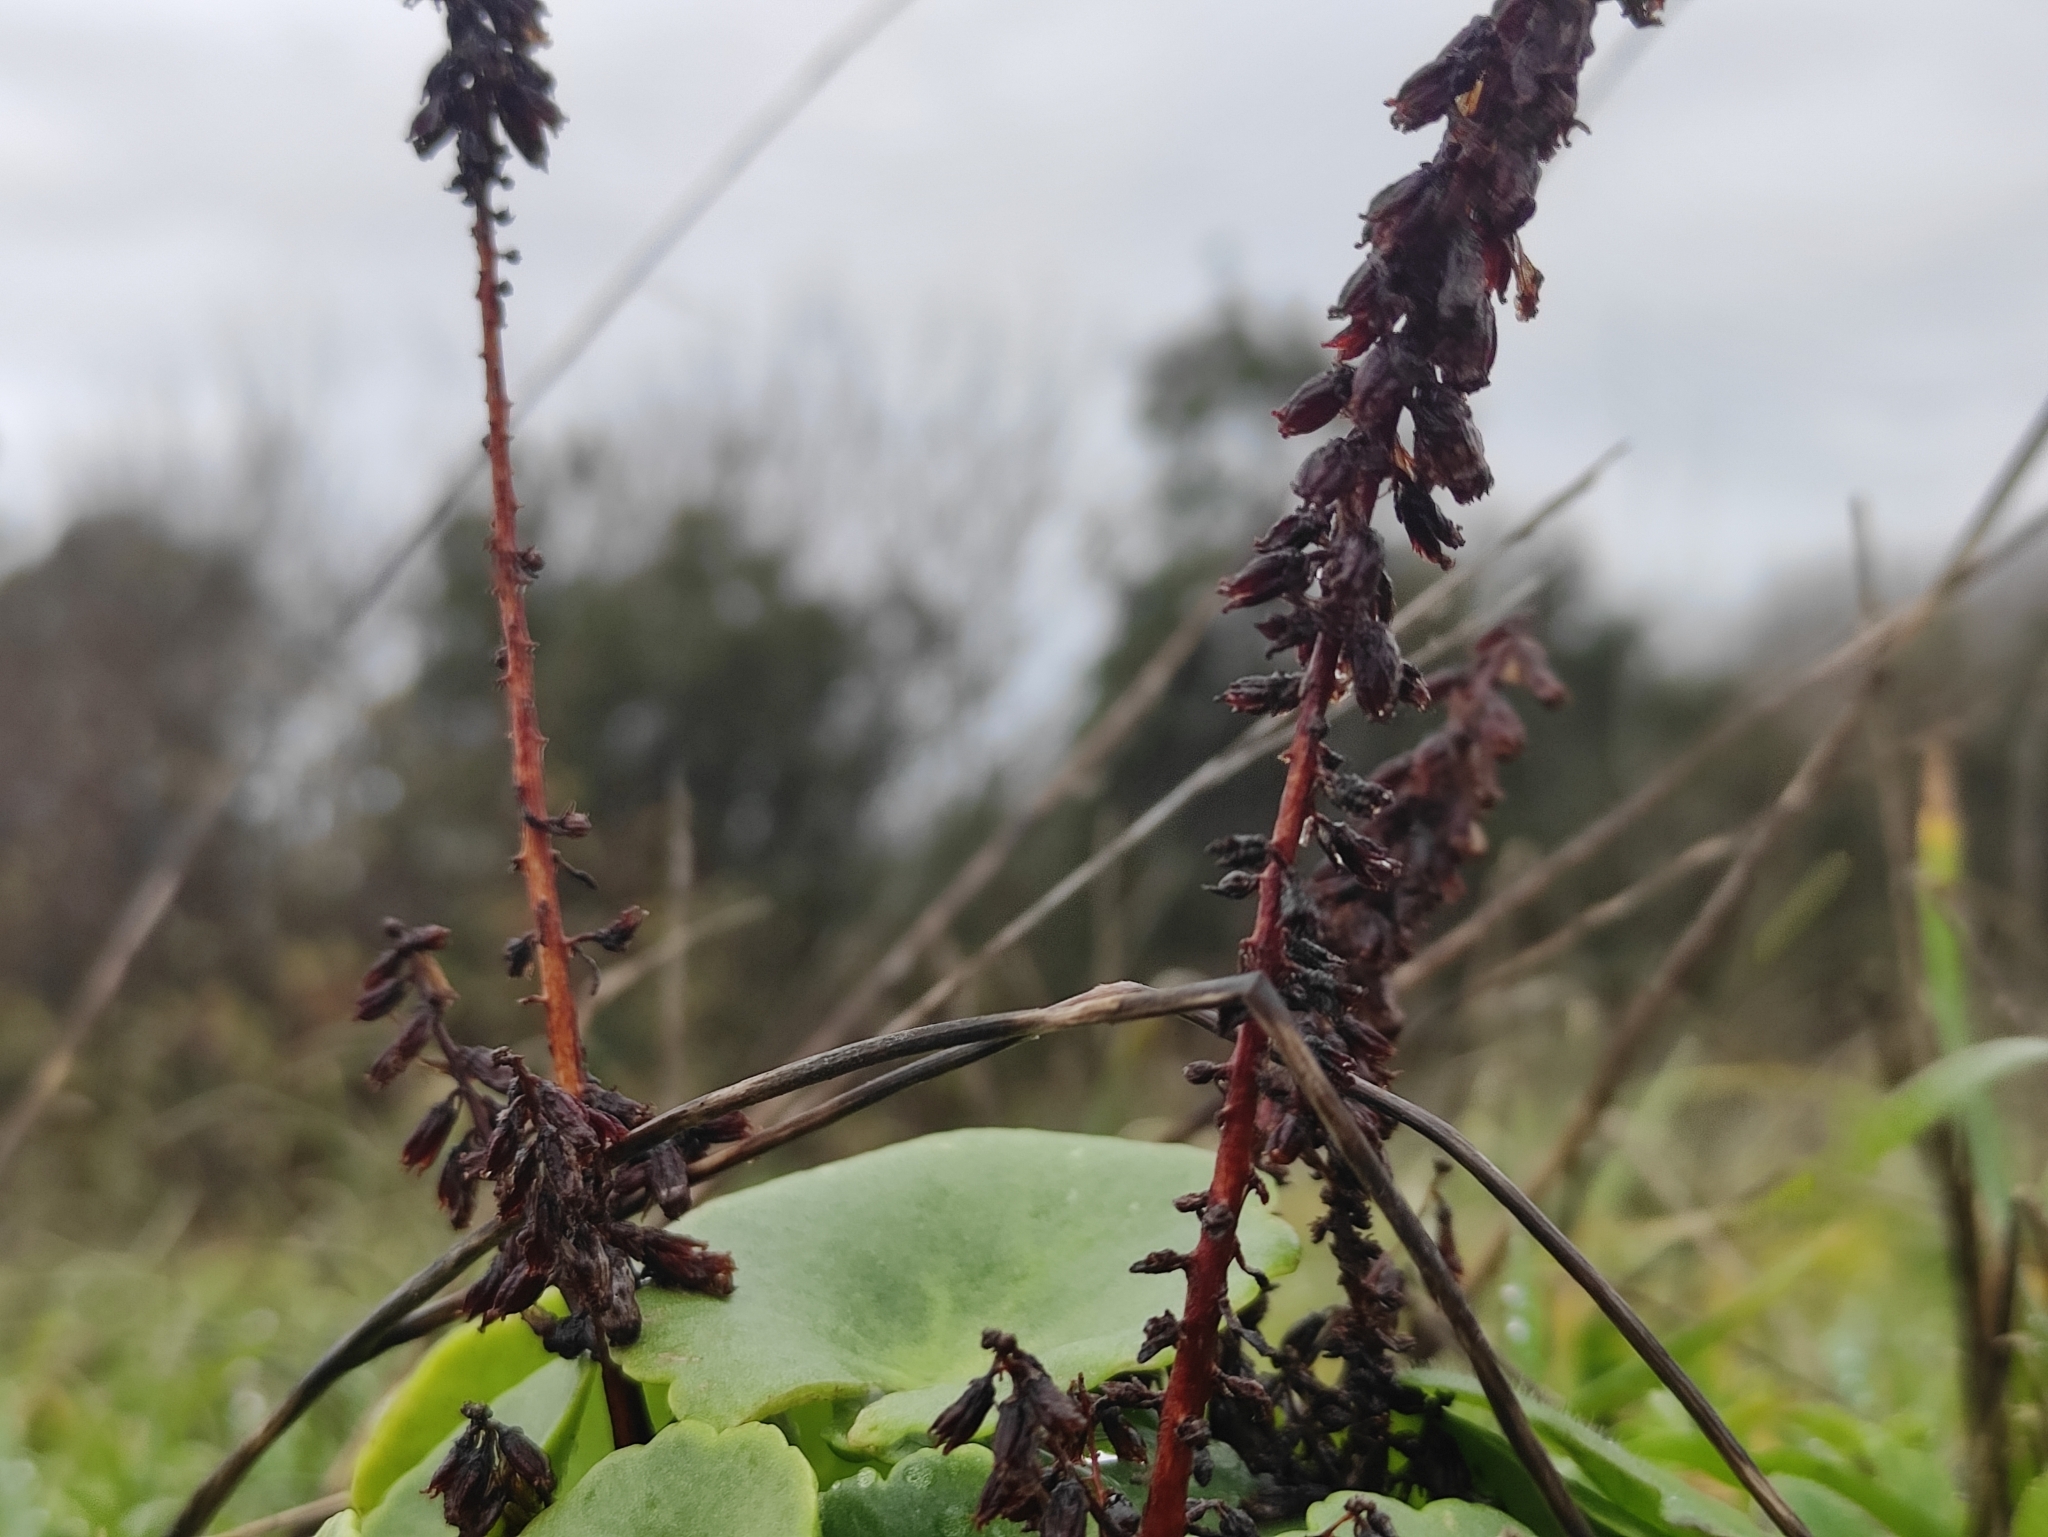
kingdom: Plantae
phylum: Tracheophyta
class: Magnoliopsida
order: Saxifragales
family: Crassulaceae
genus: Umbilicus
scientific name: Umbilicus rupestris
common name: Navelwort
